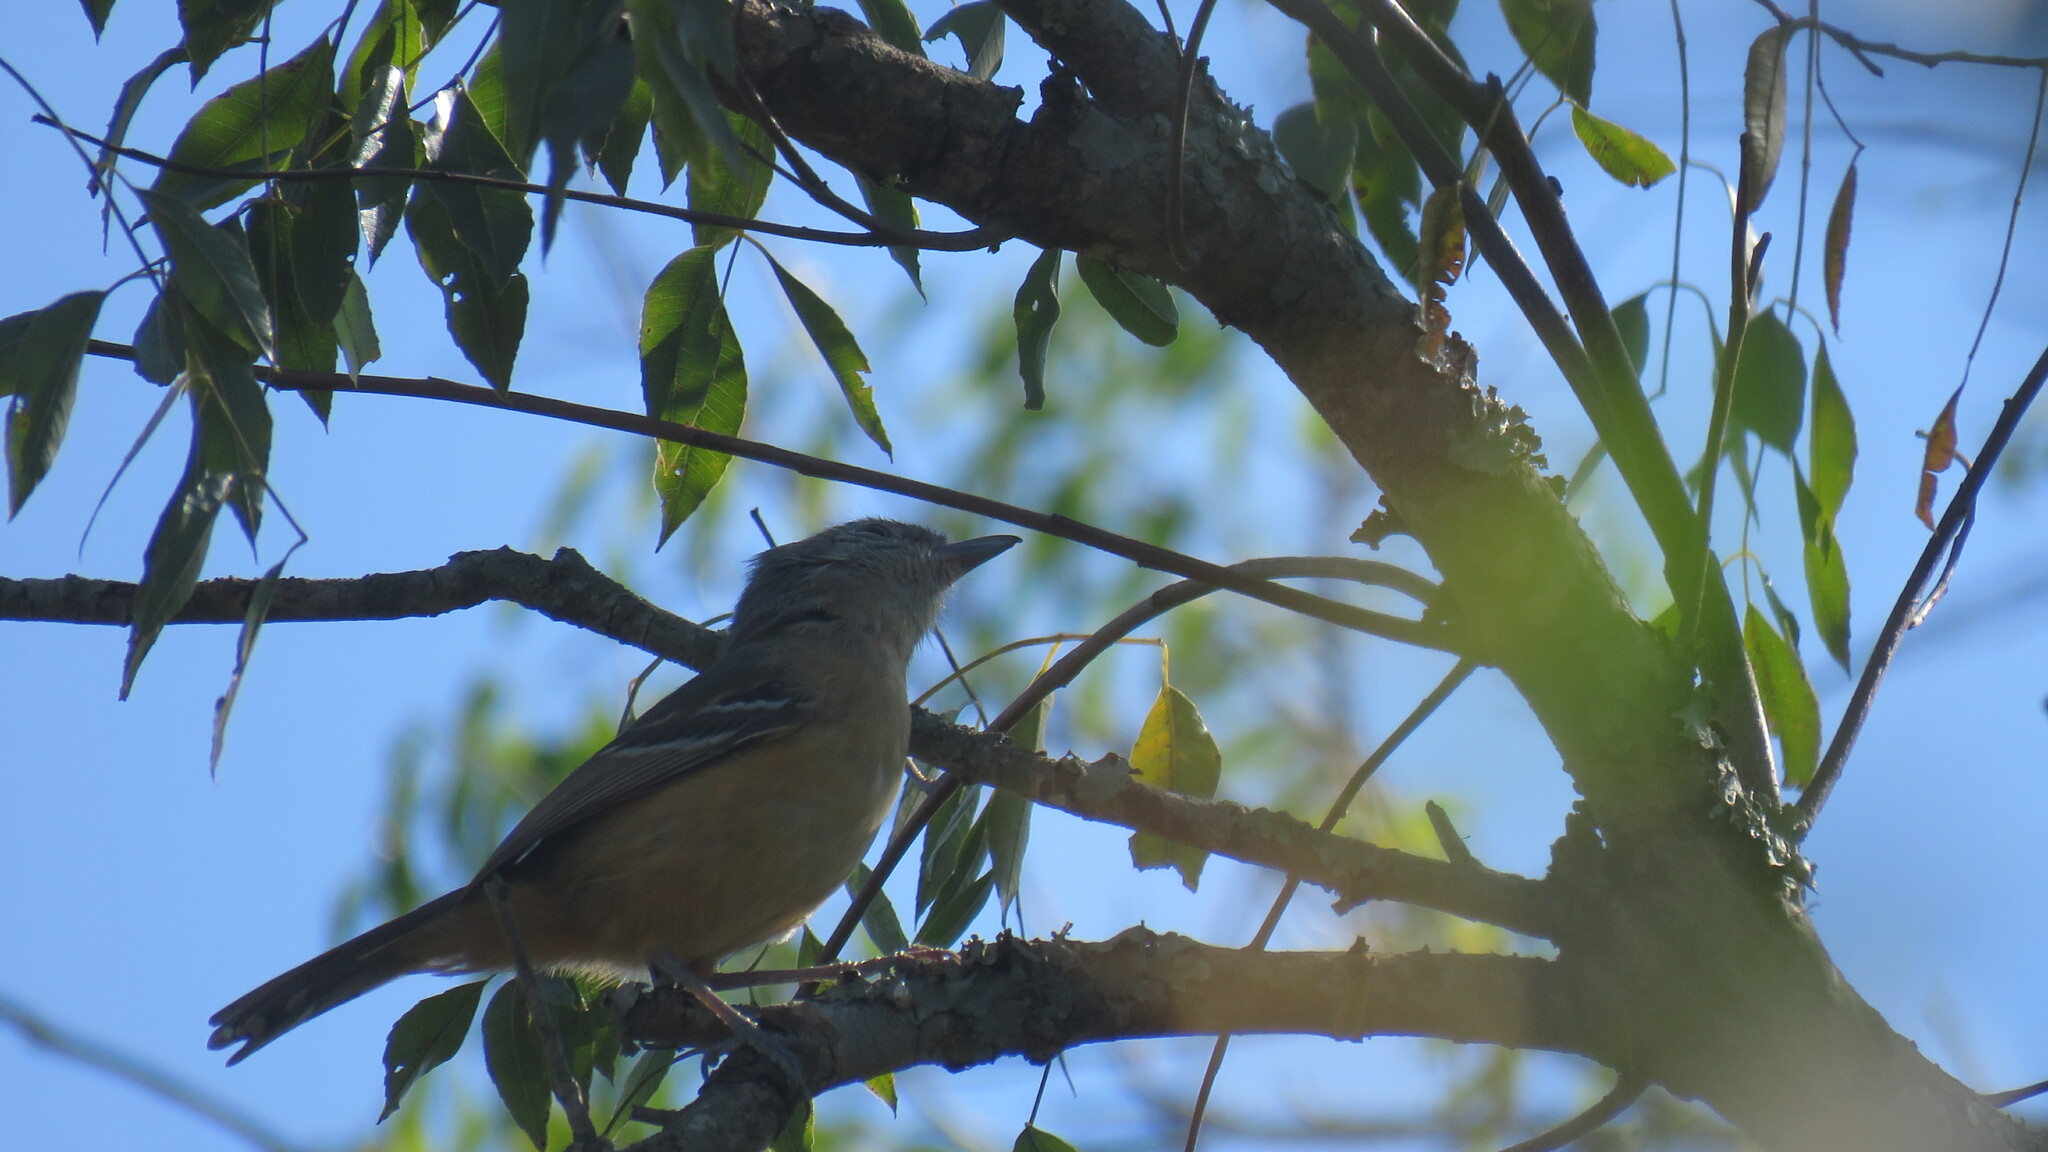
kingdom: Animalia
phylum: Chordata
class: Aves
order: Passeriformes
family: Thamnophilidae
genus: Thamnophilus
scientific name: Thamnophilus caerulescens
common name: Variable antshrike
